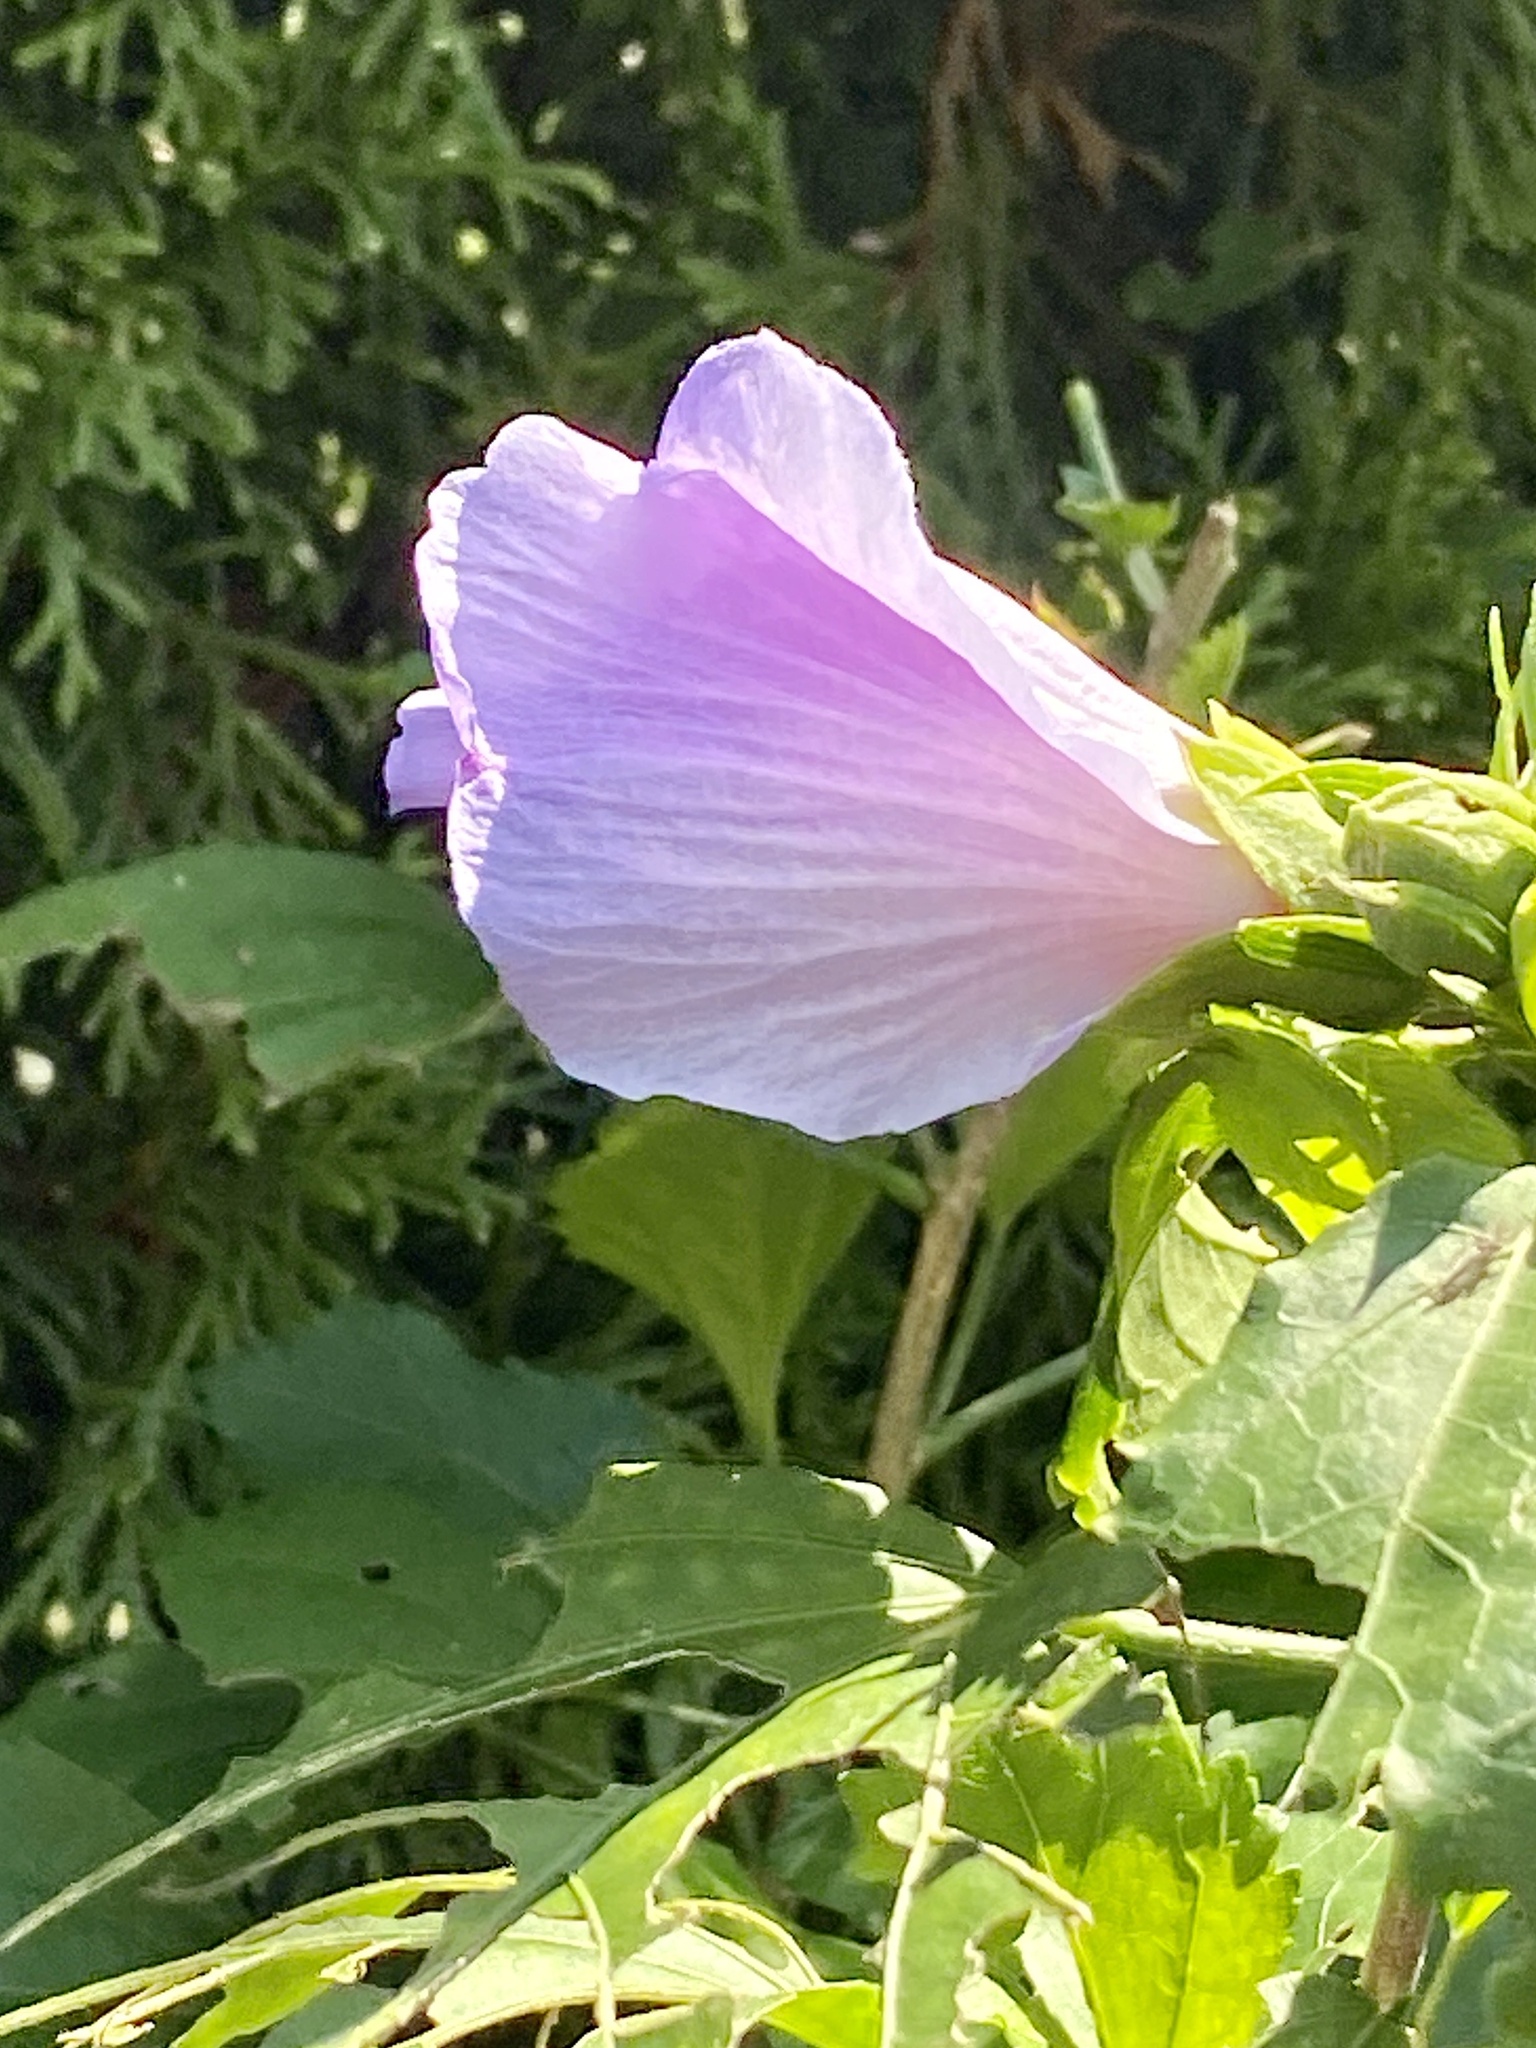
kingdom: Plantae
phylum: Tracheophyta
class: Magnoliopsida
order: Malvales
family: Malvaceae
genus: Hibiscus
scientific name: Hibiscus syriacus
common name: Syrian ketmia
